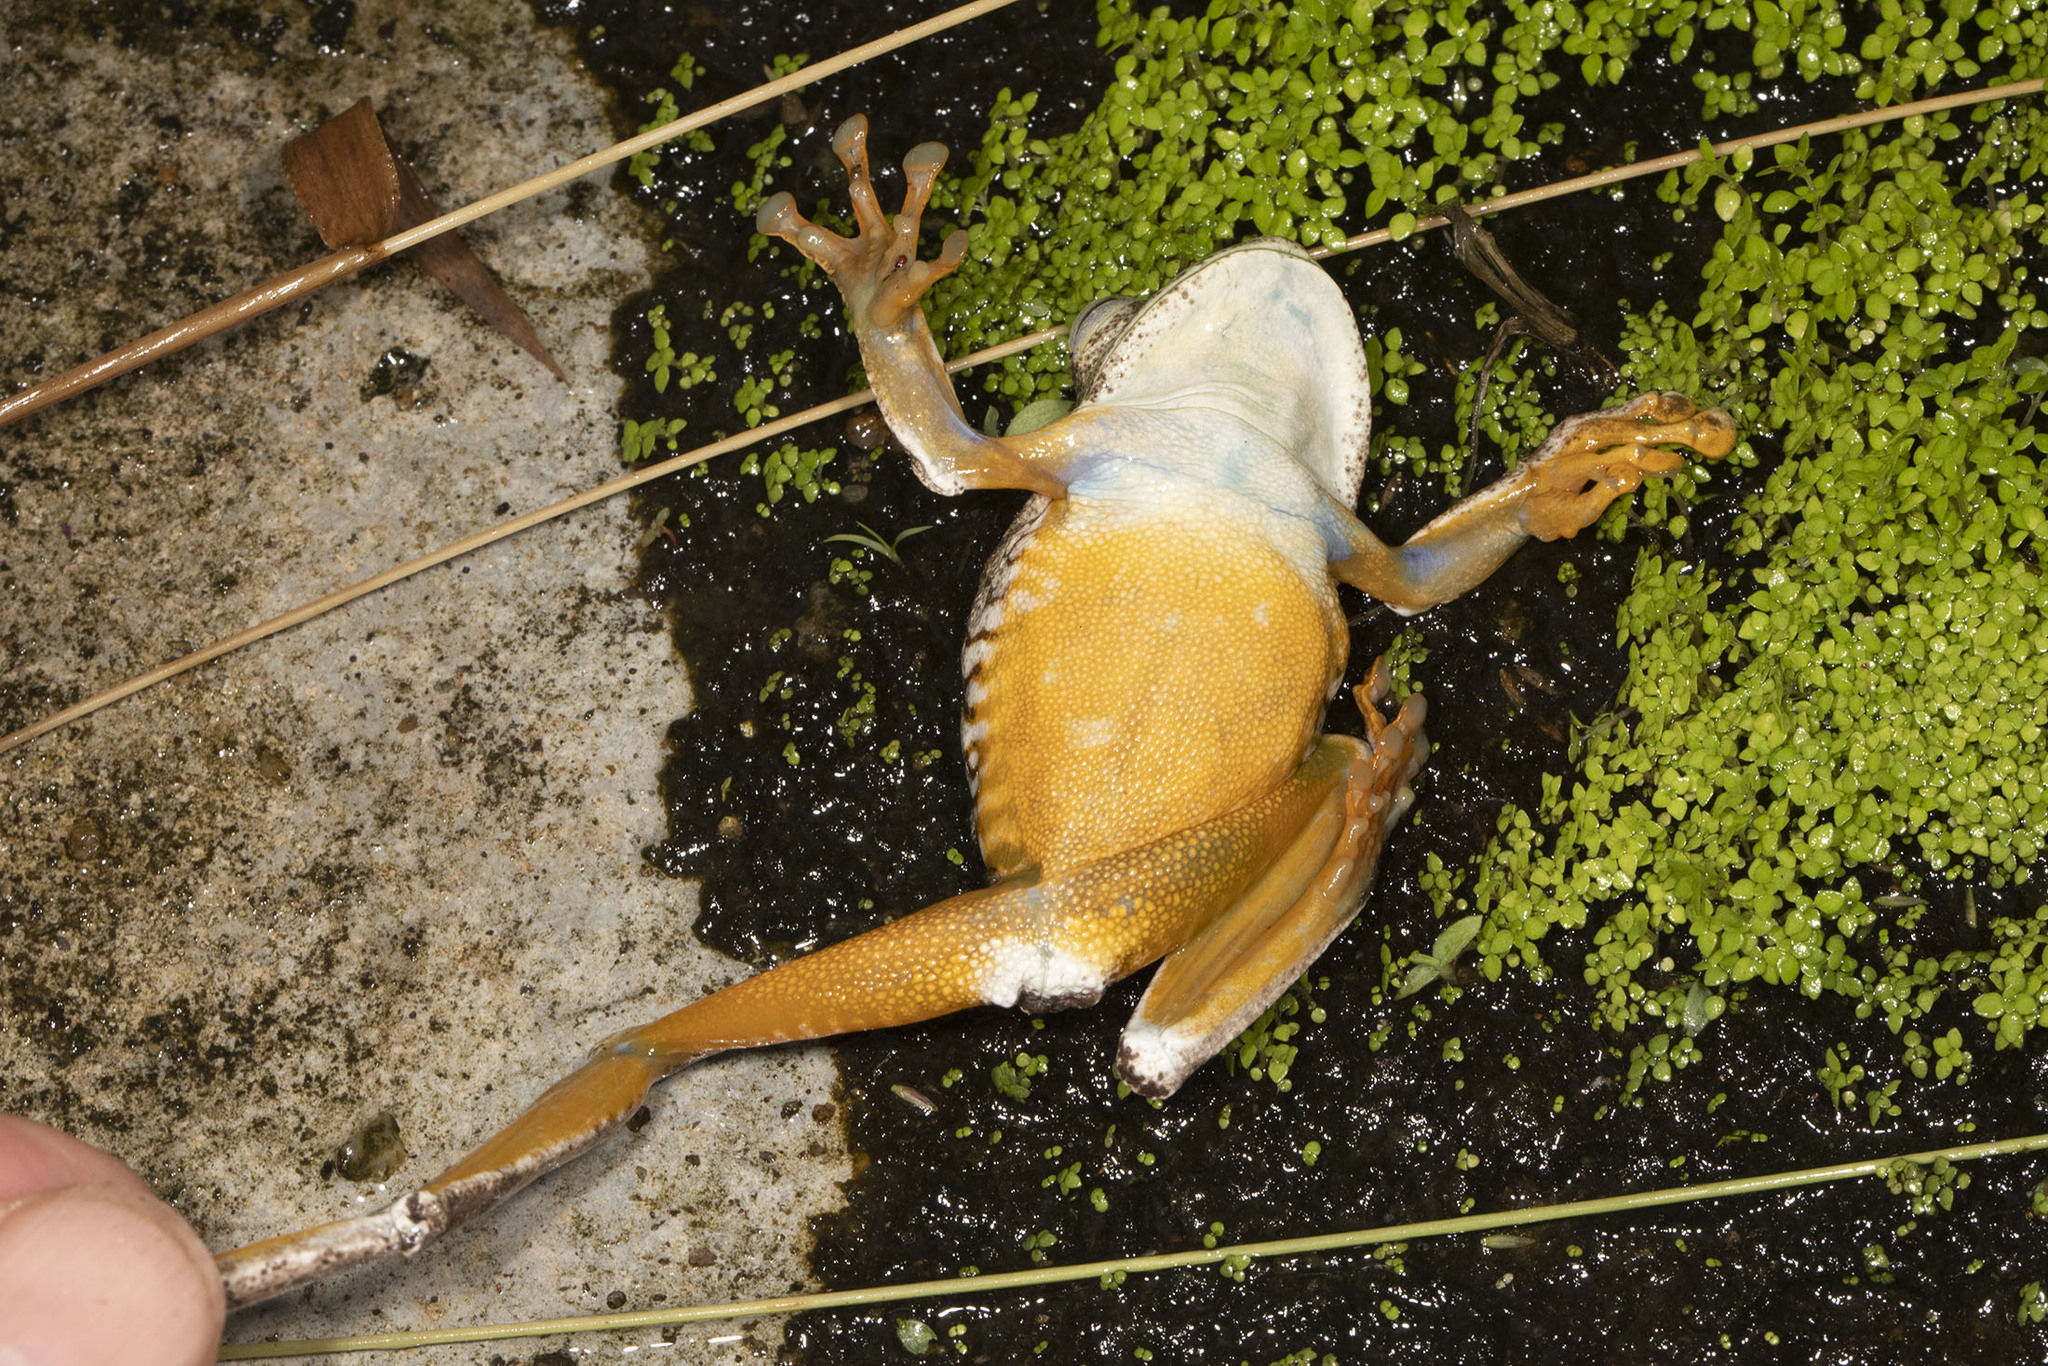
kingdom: Animalia
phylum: Chordata
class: Amphibia
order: Anura
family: Hylidae
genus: Boana
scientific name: Boana xerophylla
